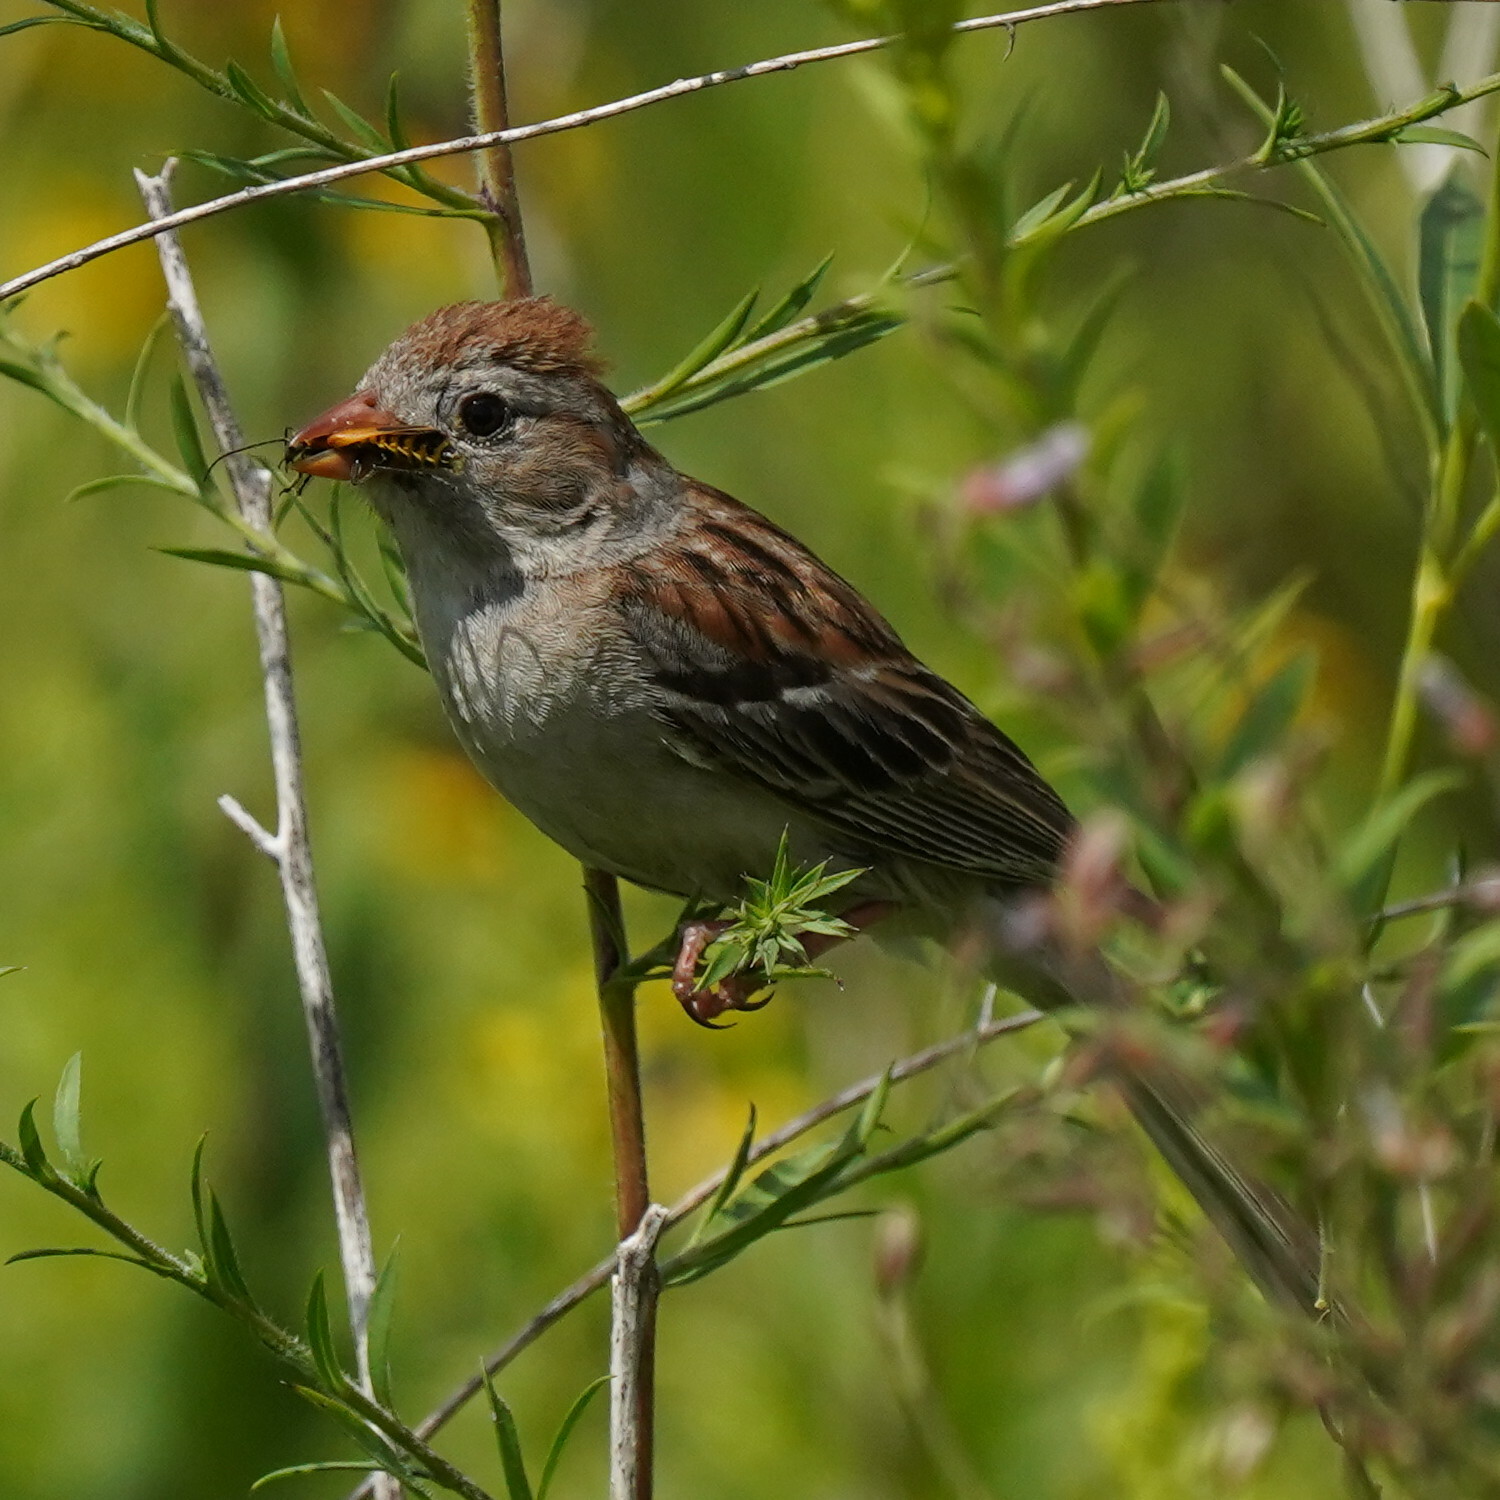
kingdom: Animalia
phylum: Chordata
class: Aves
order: Passeriformes
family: Passerellidae
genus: Spizella
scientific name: Spizella pusilla
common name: Field sparrow
